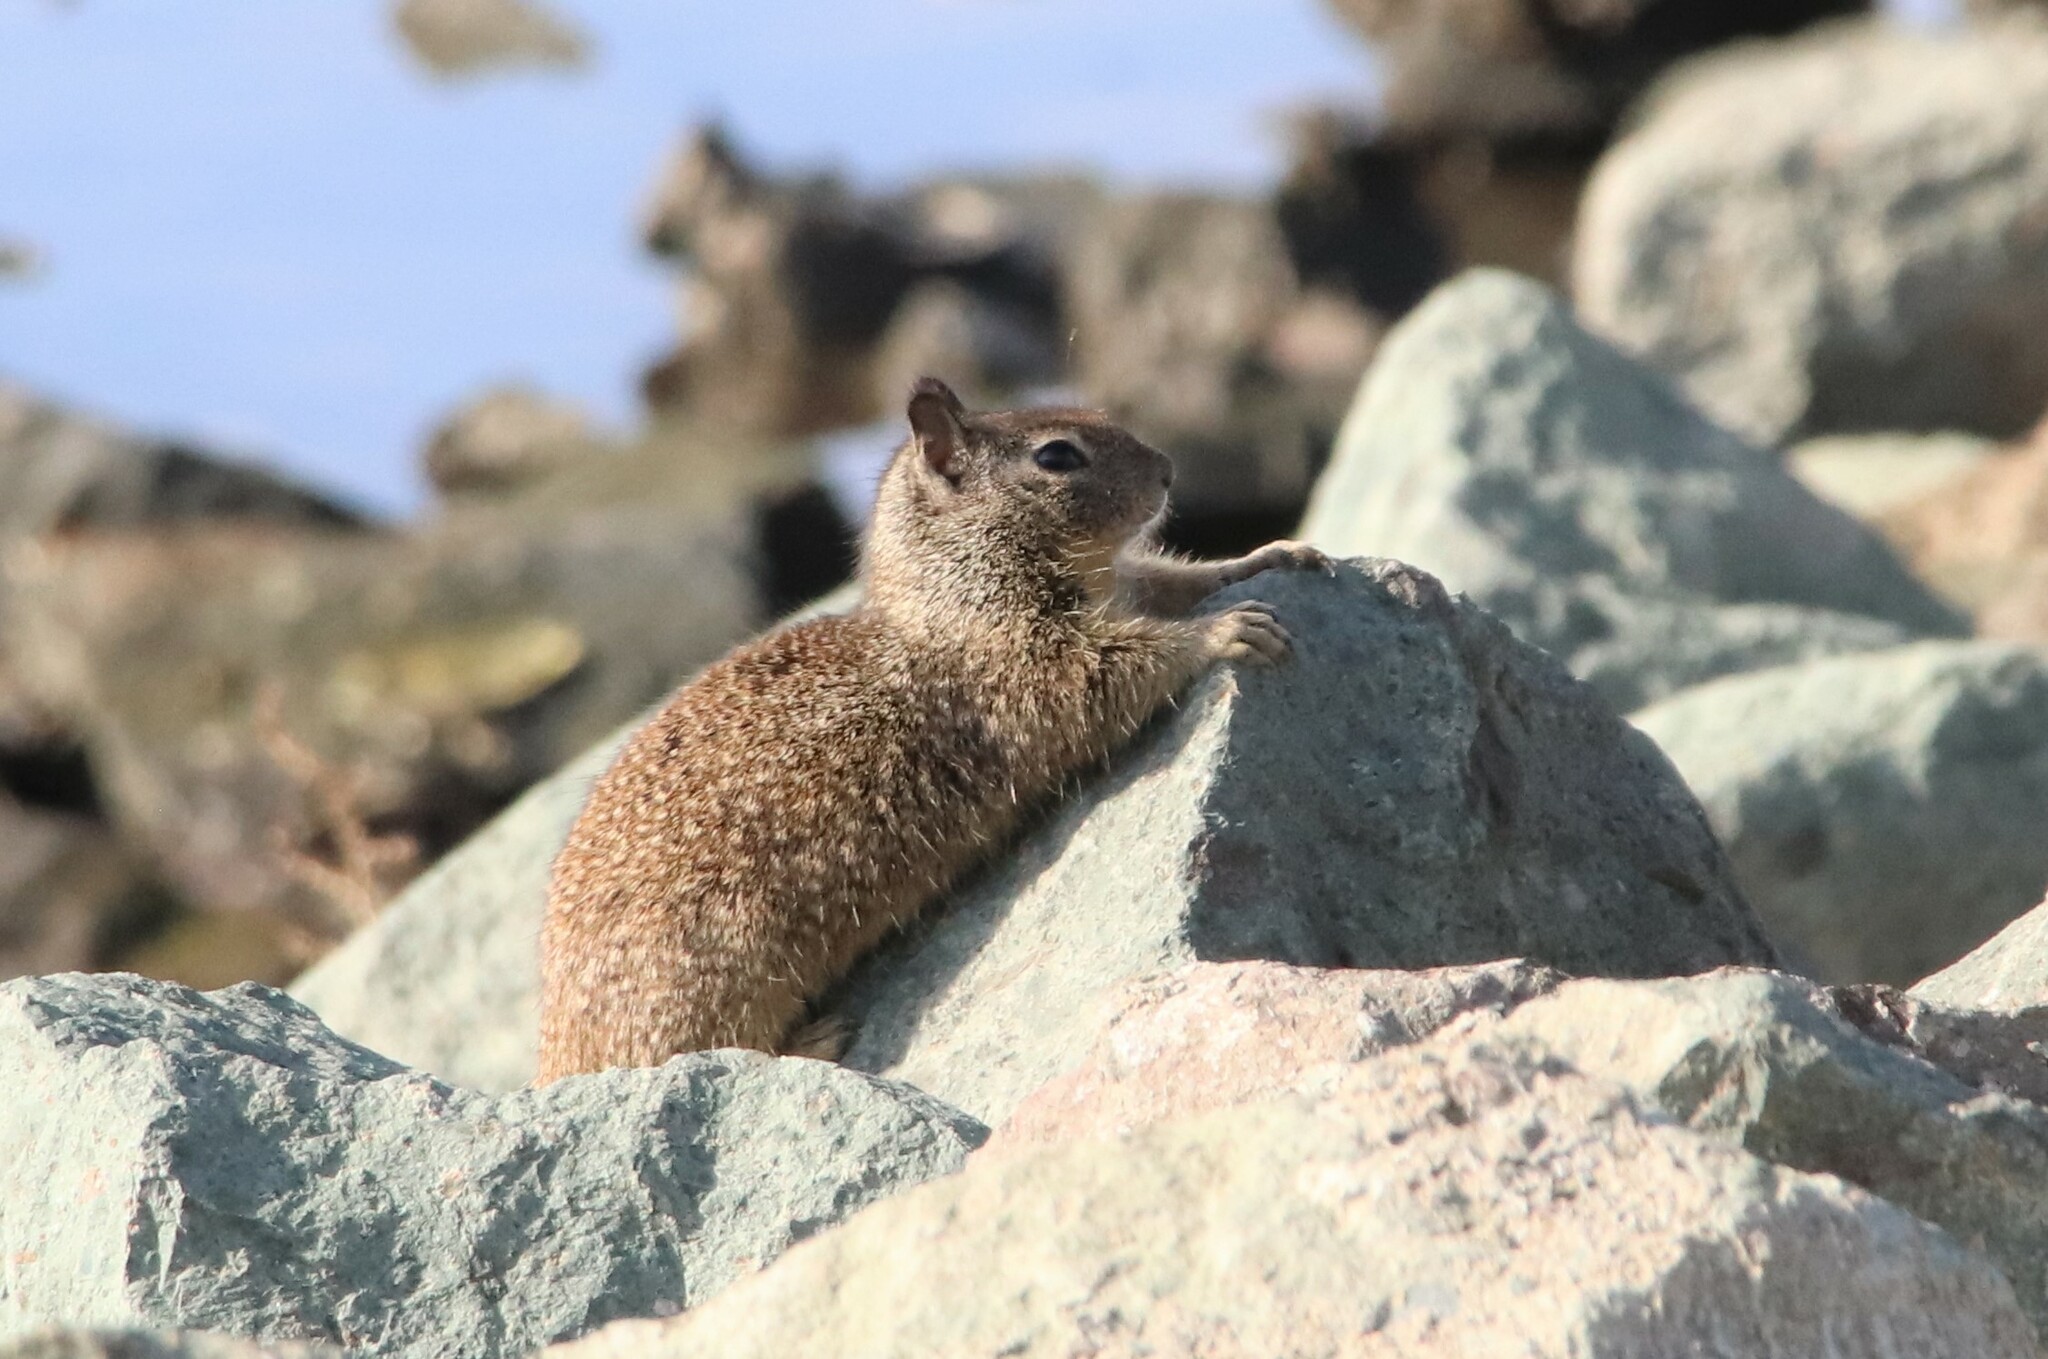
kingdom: Animalia
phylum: Chordata
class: Mammalia
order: Rodentia
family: Sciuridae
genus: Otospermophilus
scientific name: Otospermophilus beecheyi
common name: California ground squirrel
